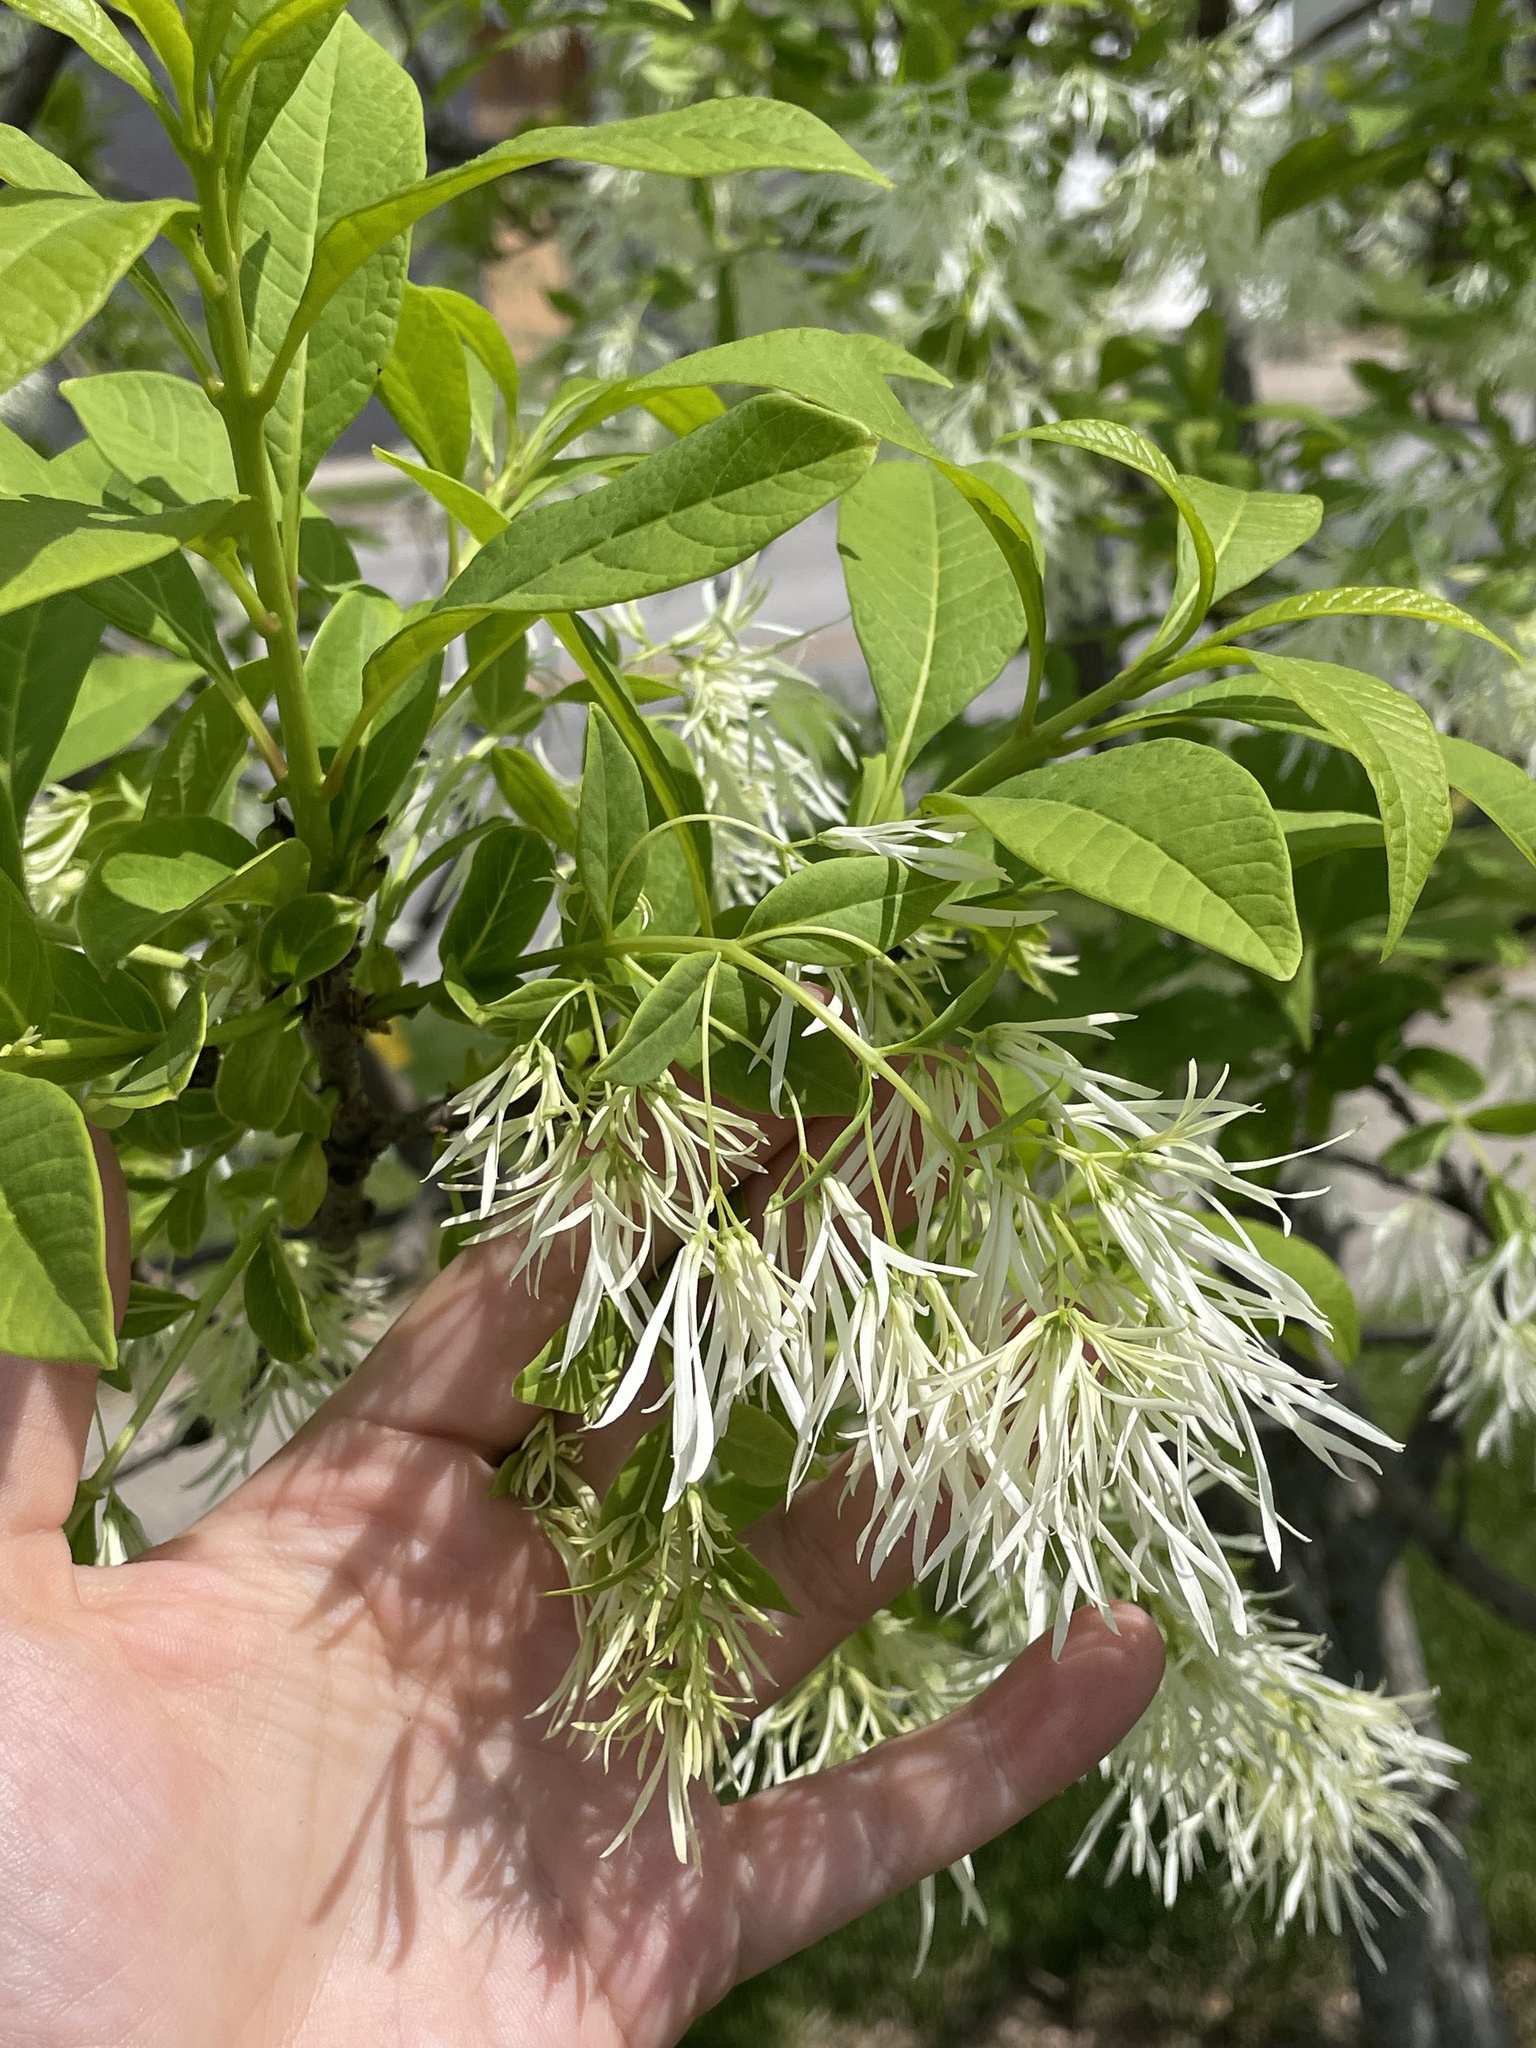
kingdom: Plantae
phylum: Tracheophyta
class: Magnoliopsida
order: Lamiales
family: Oleaceae
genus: Chionanthus
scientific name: Chionanthus virginicus
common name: American fringetree
